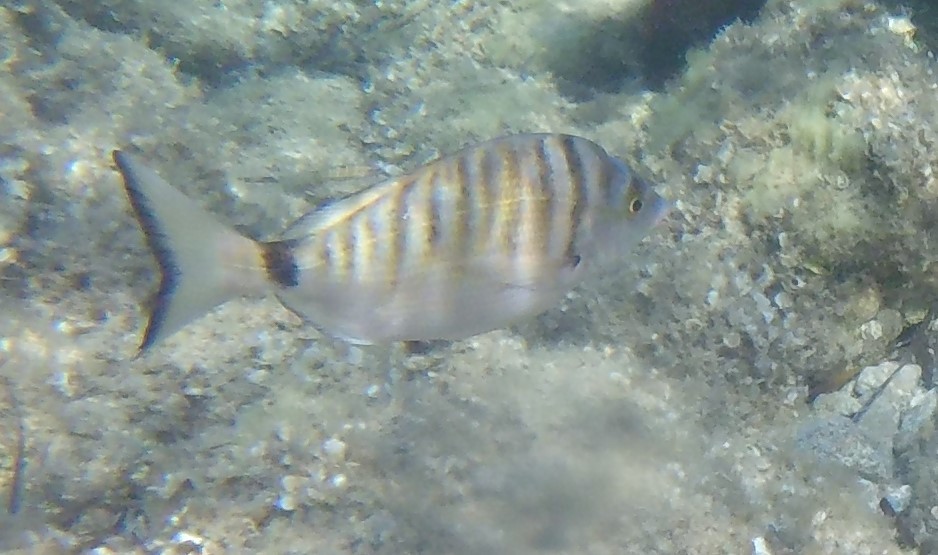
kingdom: Animalia
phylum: Chordata
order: Perciformes
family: Sparidae
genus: Diplodus
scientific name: Diplodus puntazzo
